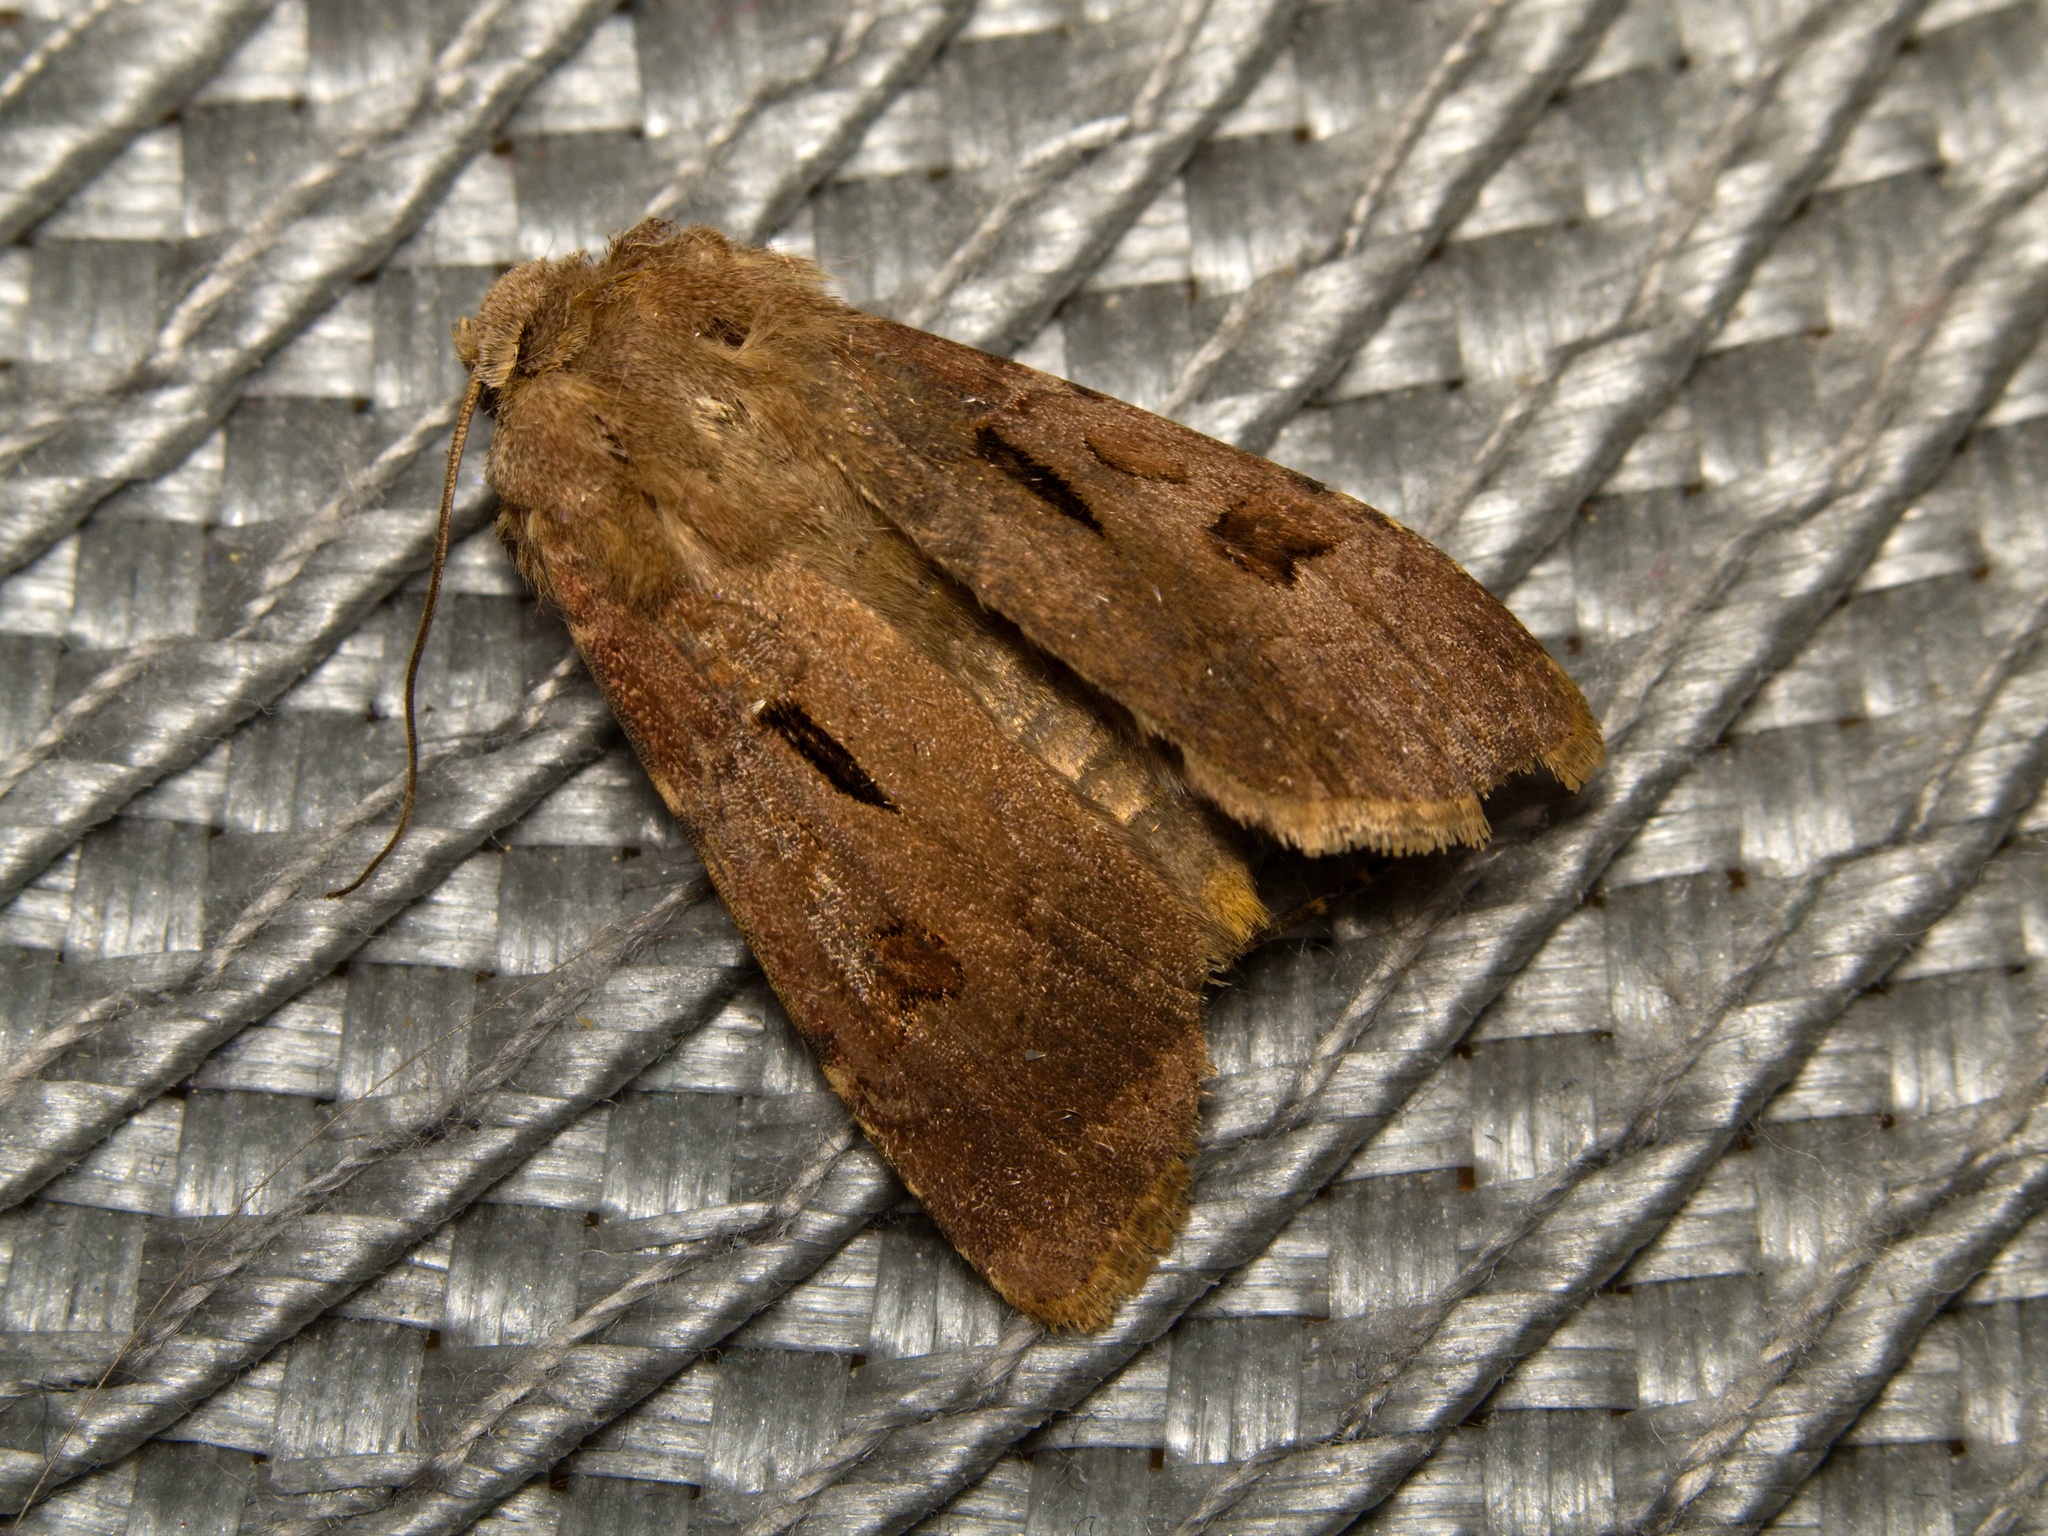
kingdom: Animalia
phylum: Arthropoda
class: Insecta
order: Lepidoptera
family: Noctuidae
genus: Agrotis
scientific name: Agrotis exclamationis
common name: Heart and dart
